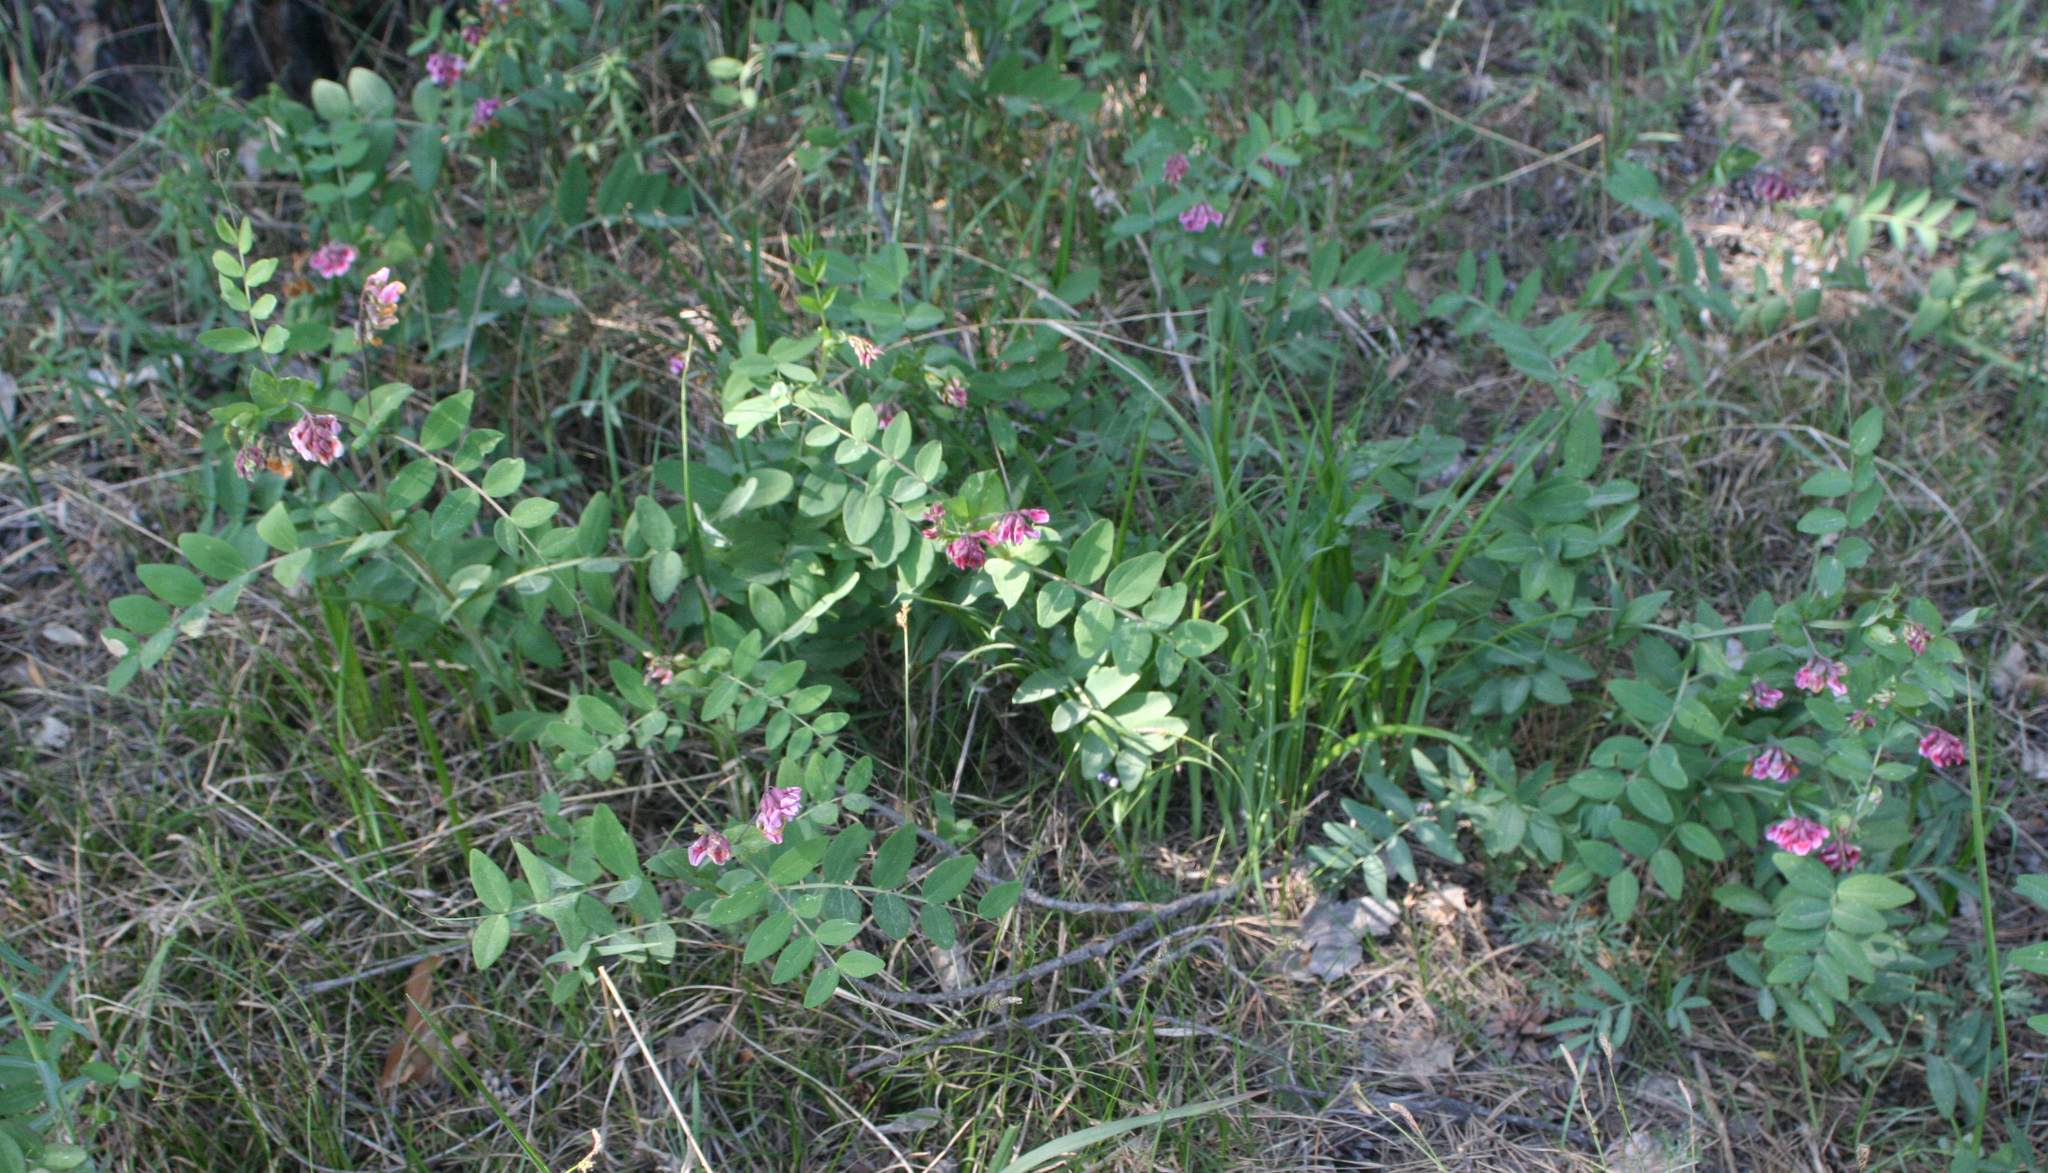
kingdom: Plantae
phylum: Tracheophyta
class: Magnoliopsida
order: Fabales
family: Fabaceae
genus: Lathyrus
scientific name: Lathyrus pisiformis
